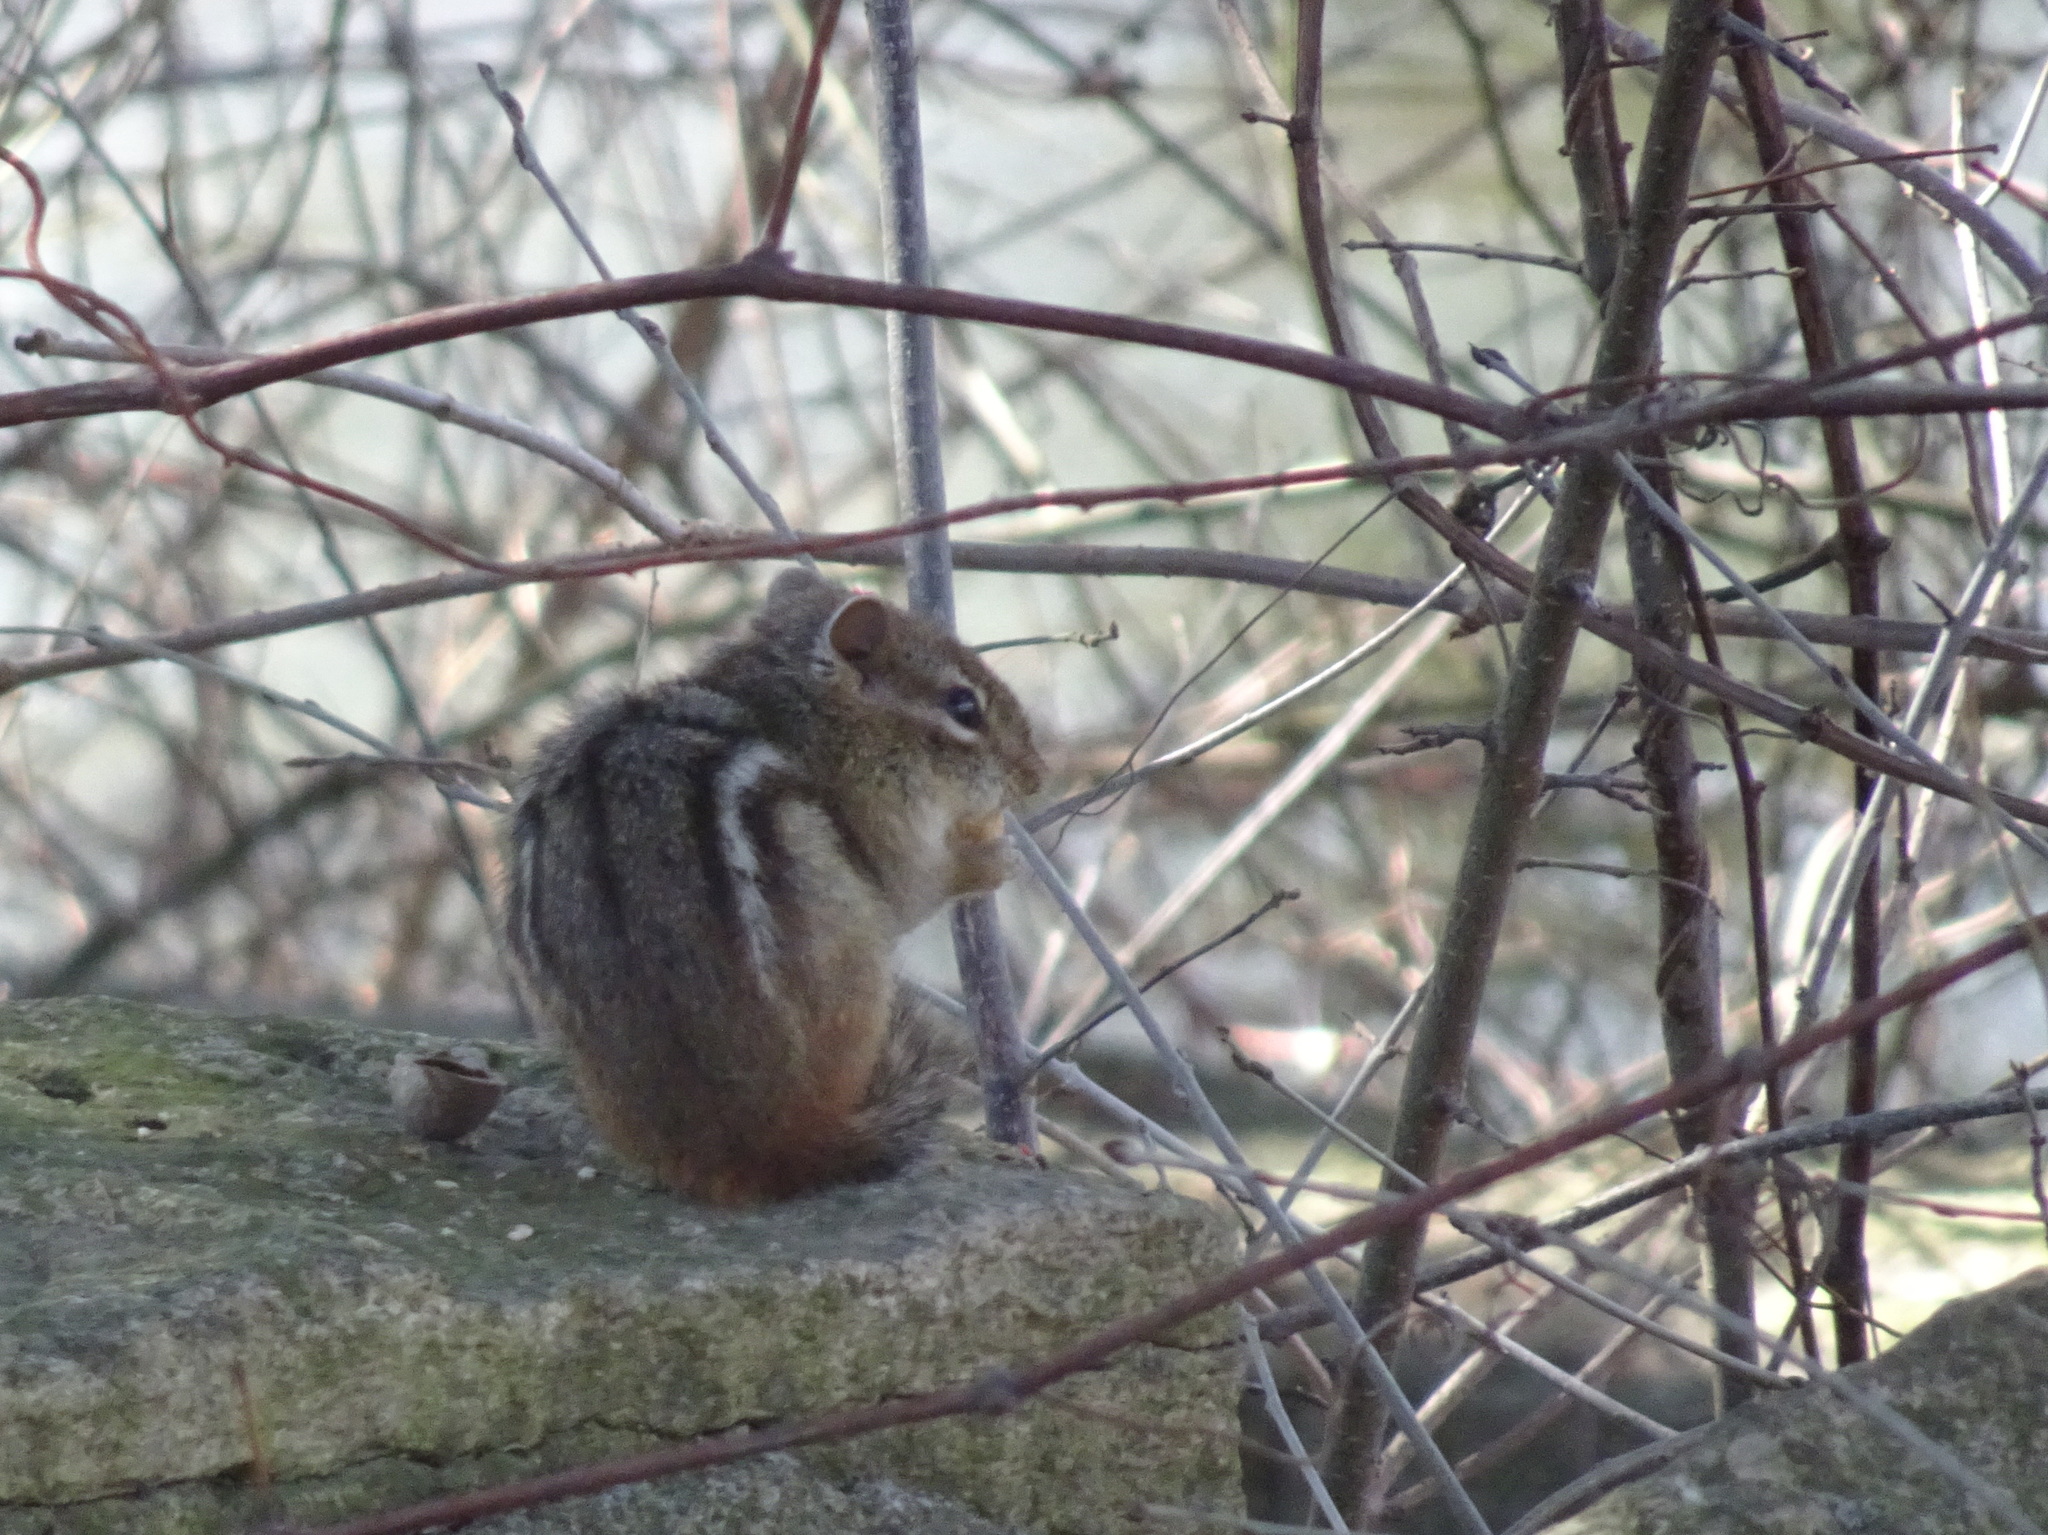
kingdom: Animalia
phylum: Chordata
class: Mammalia
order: Rodentia
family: Sciuridae
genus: Tamias
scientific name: Tamias striatus
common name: Eastern chipmunk
